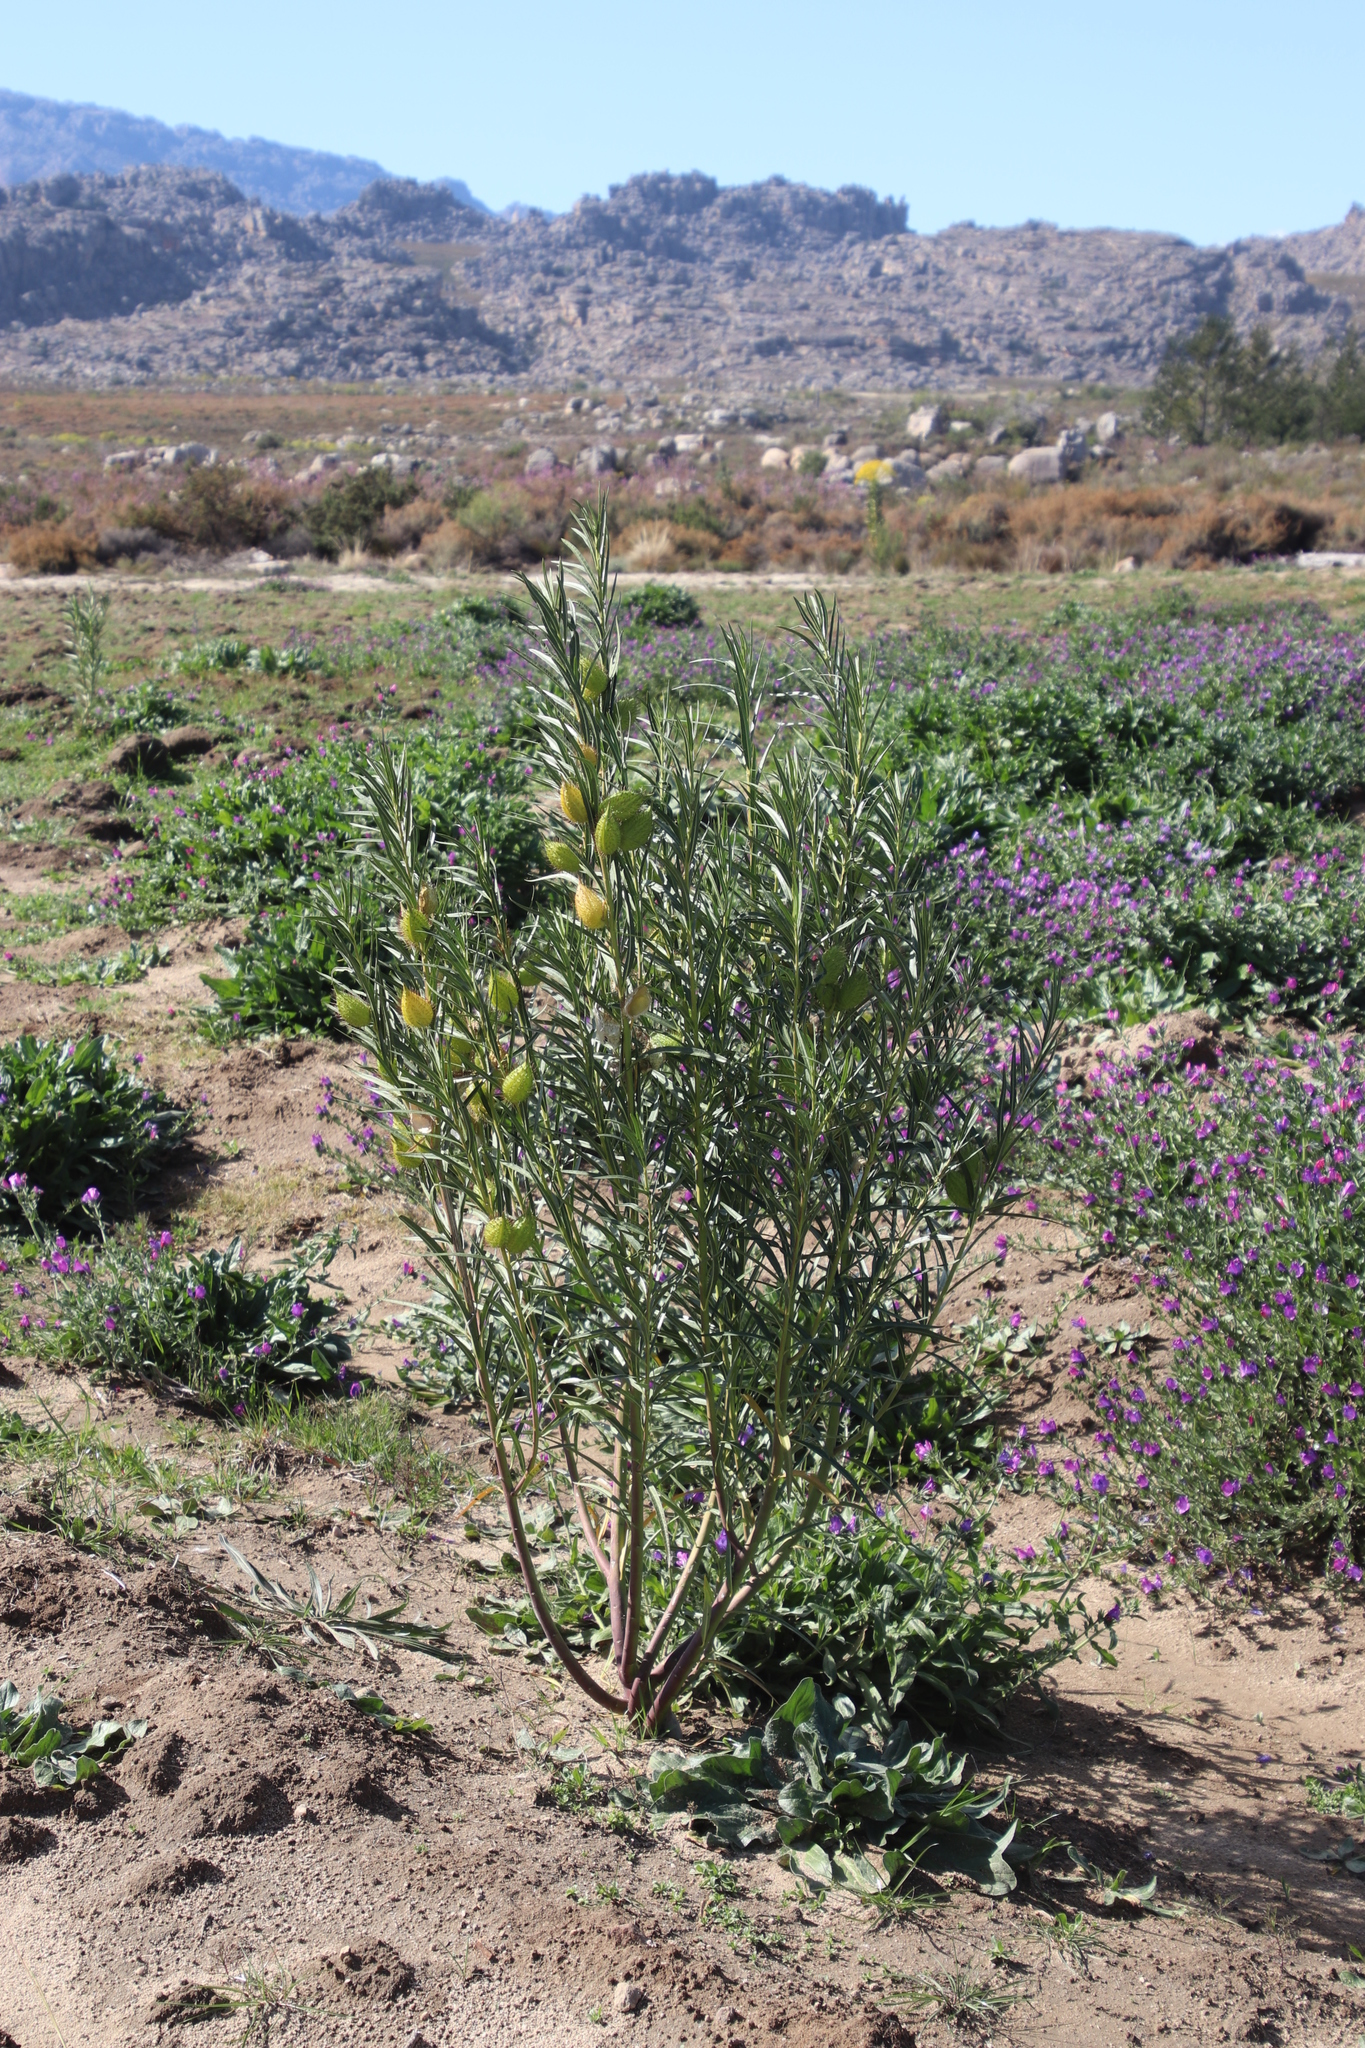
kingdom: Plantae
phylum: Tracheophyta
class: Magnoliopsida
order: Gentianales
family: Apocynaceae
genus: Gomphocarpus
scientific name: Gomphocarpus fruticosus
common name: Milkweed
